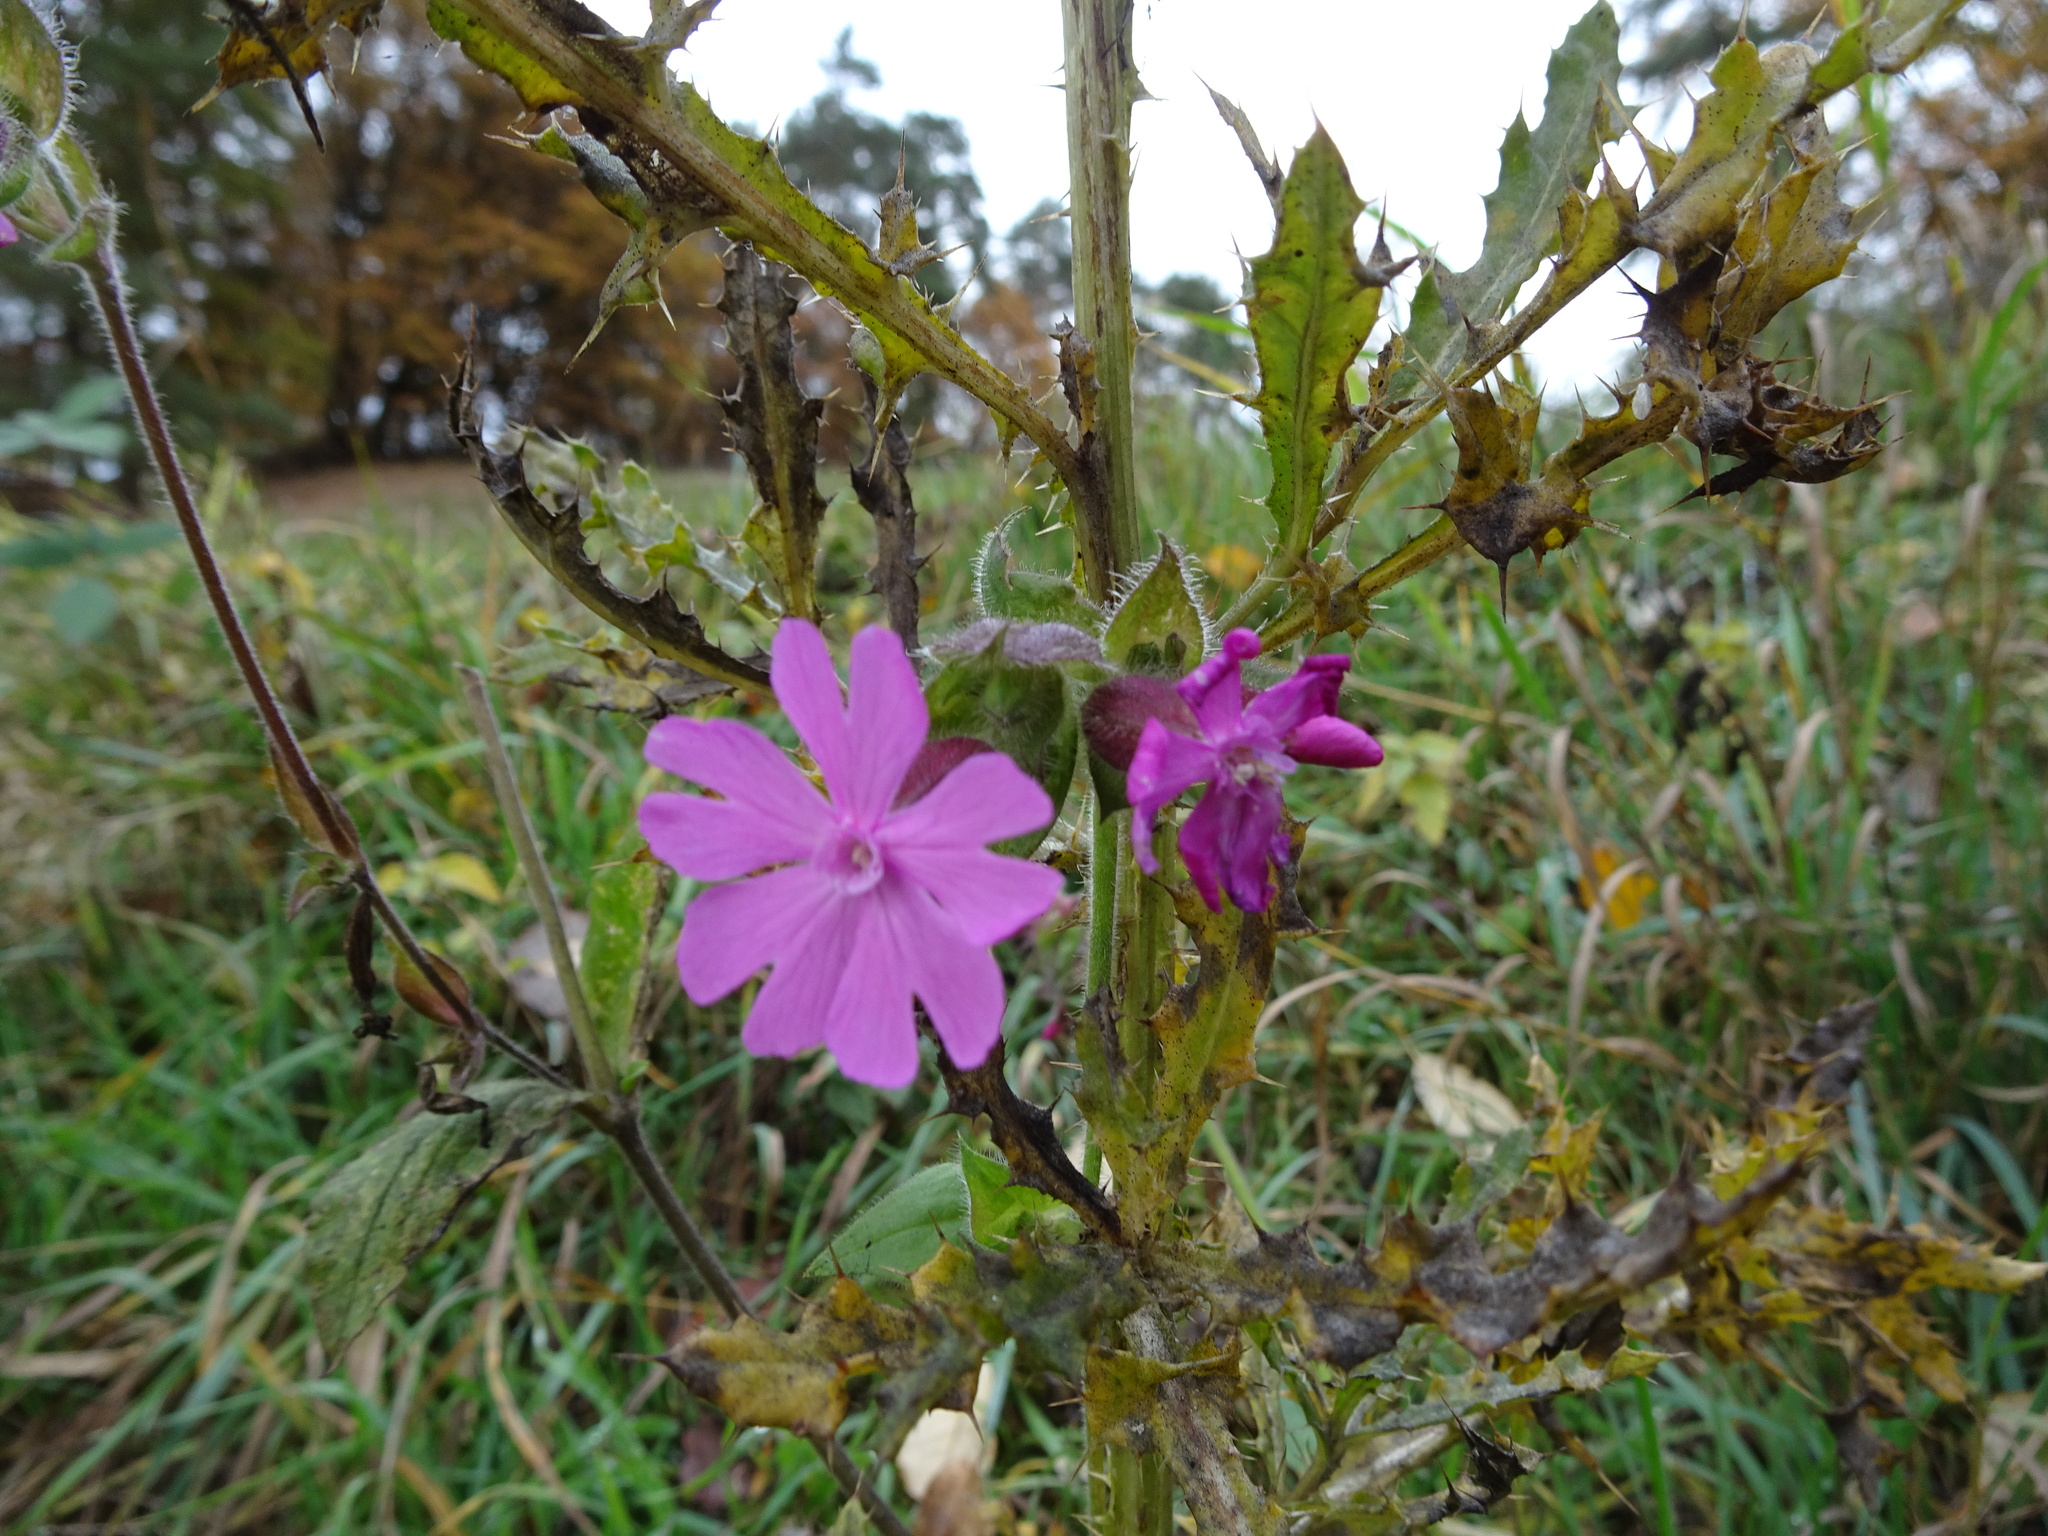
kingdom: Plantae
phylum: Tracheophyta
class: Magnoliopsida
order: Caryophyllales
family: Caryophyllaceae
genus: Silene
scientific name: Silene dioica
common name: Red campion
